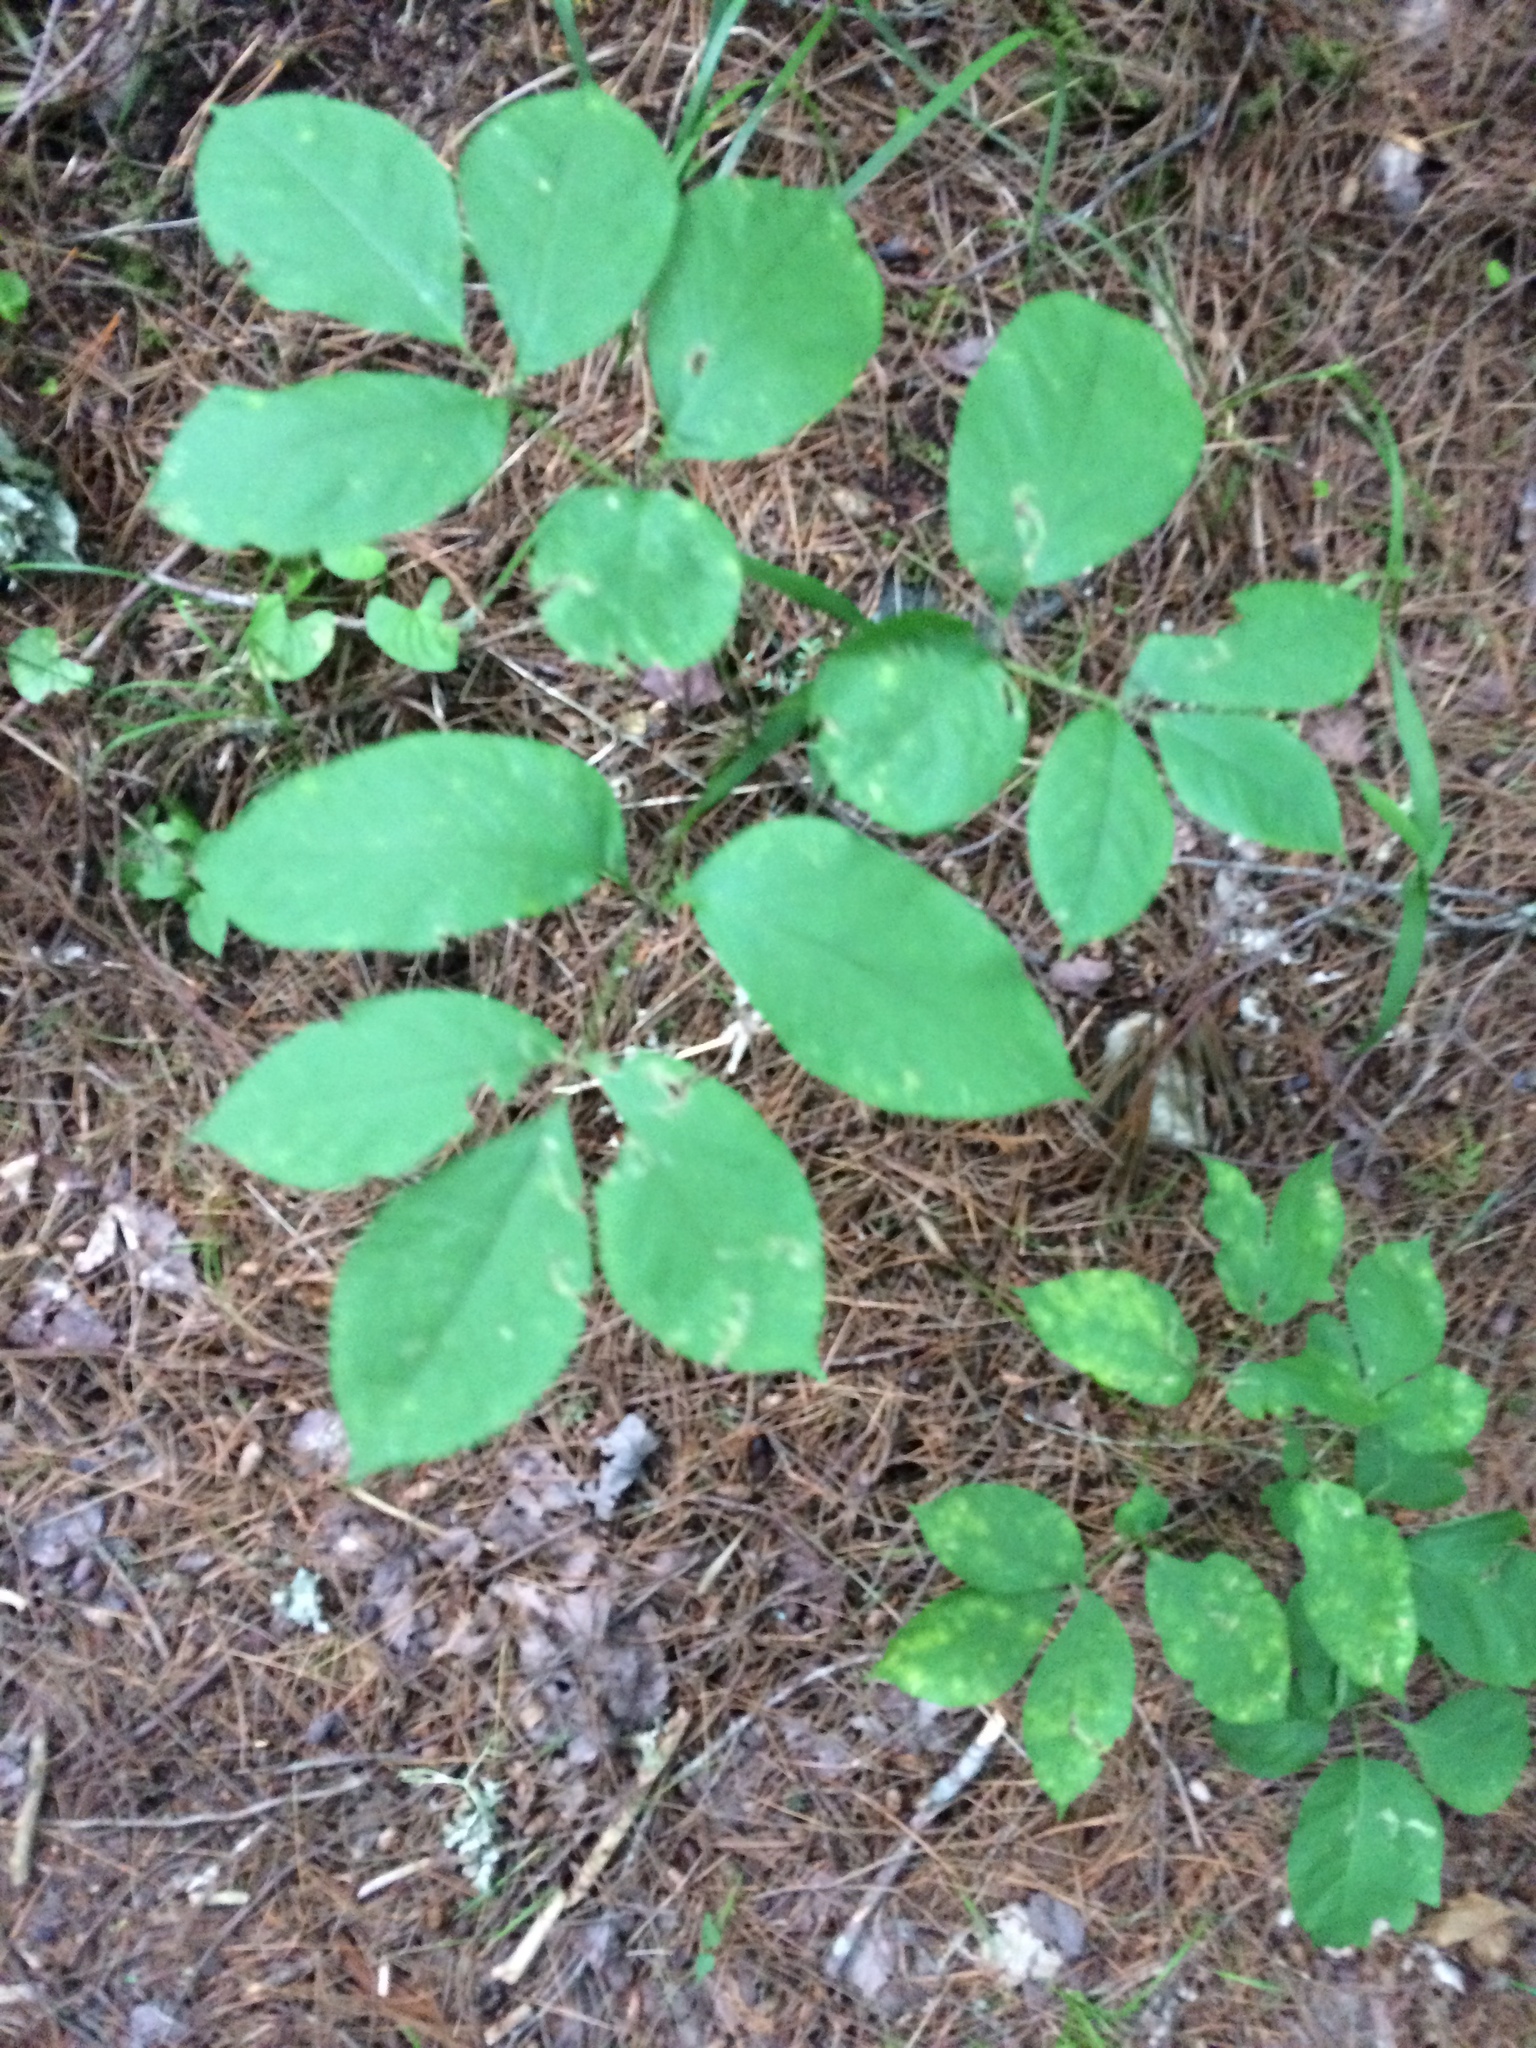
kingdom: Plantae
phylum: Tracheophyta
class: Magnoliopsida
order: Apiales
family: Araliaceae
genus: Aralia
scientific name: Aralia nudicaulis
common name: Wild sarsaparilla
